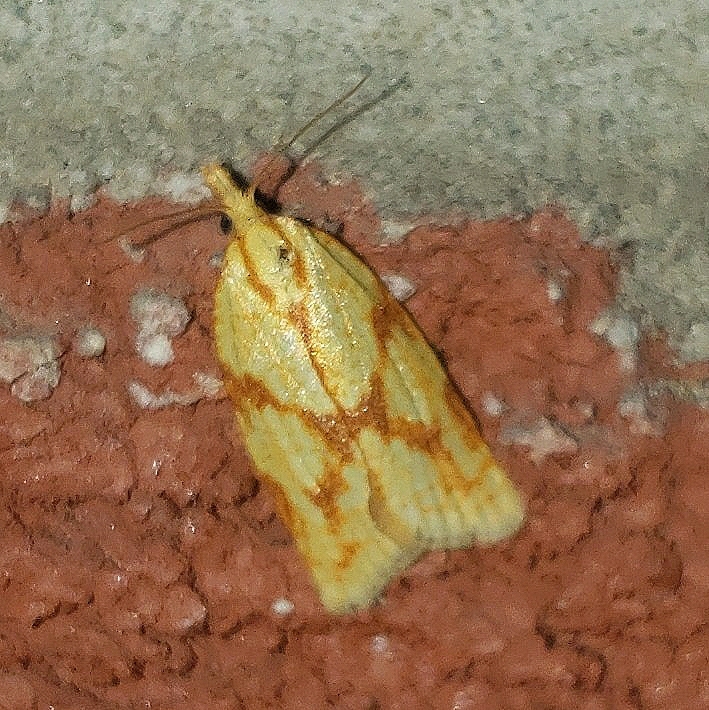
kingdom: Animalia
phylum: Arthropoda
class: Insecta
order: Lepidoptera
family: Tortricidae
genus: Sparganothis
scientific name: Sparganothis sulfureana
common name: Sparganothis fruitworm moth
